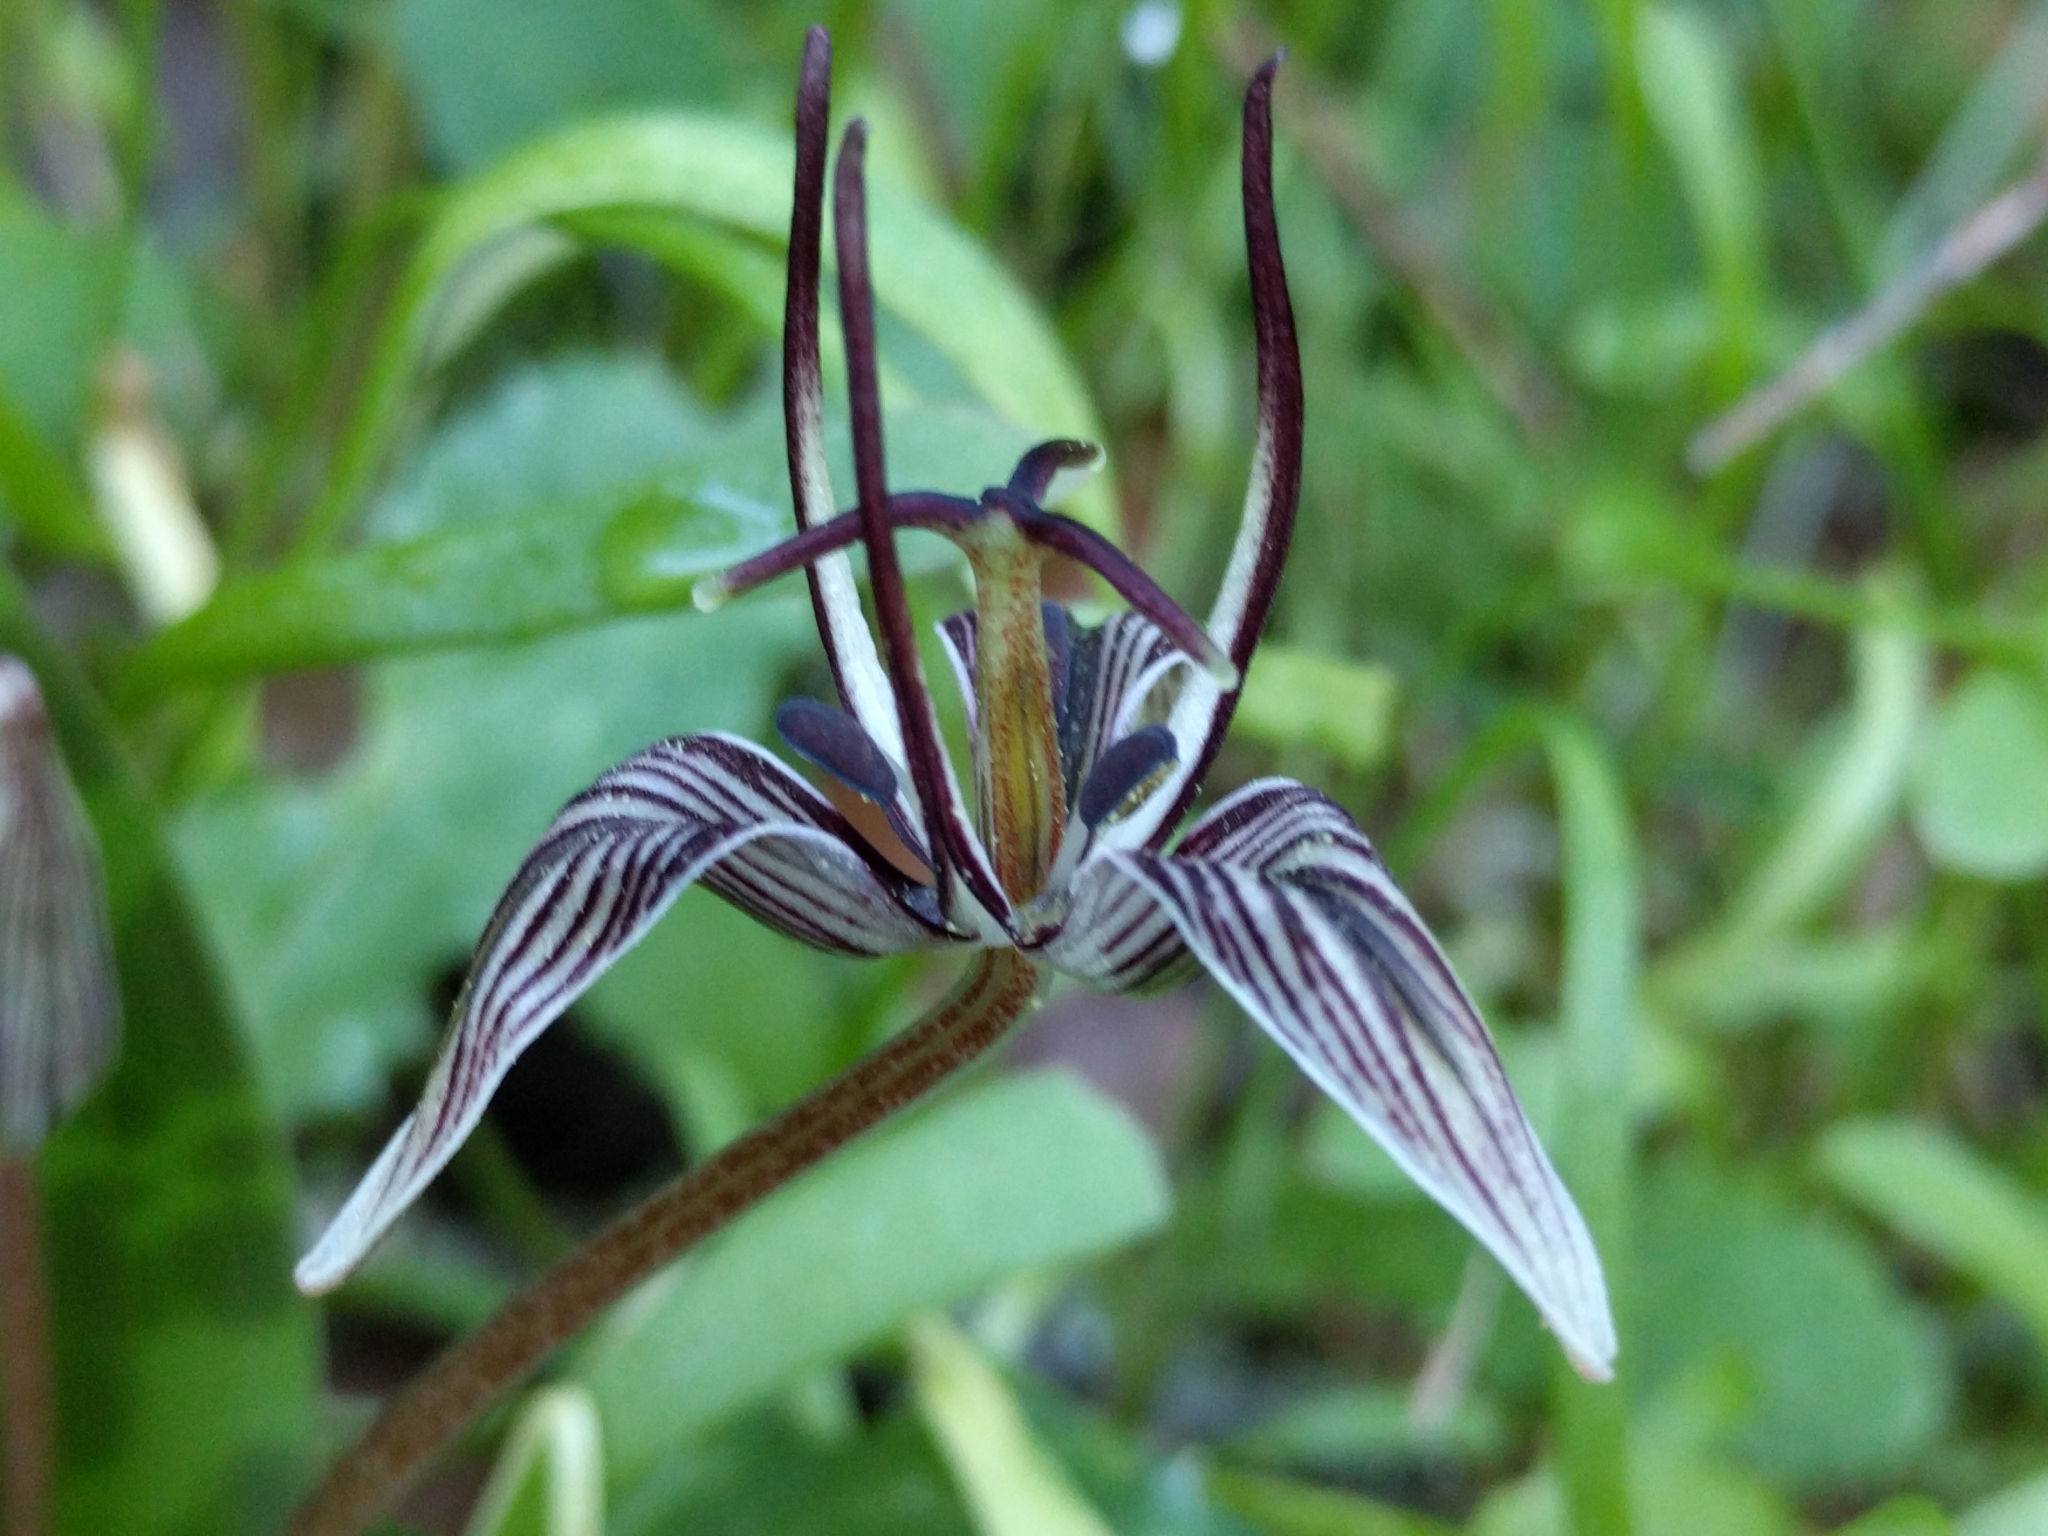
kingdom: Plantae
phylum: Tracheophyta
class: Liliopsida
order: Liliales
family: Liliaceae
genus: Scoliopus
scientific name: Scoliopus bigelovii
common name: Foetid adder's-tongue
